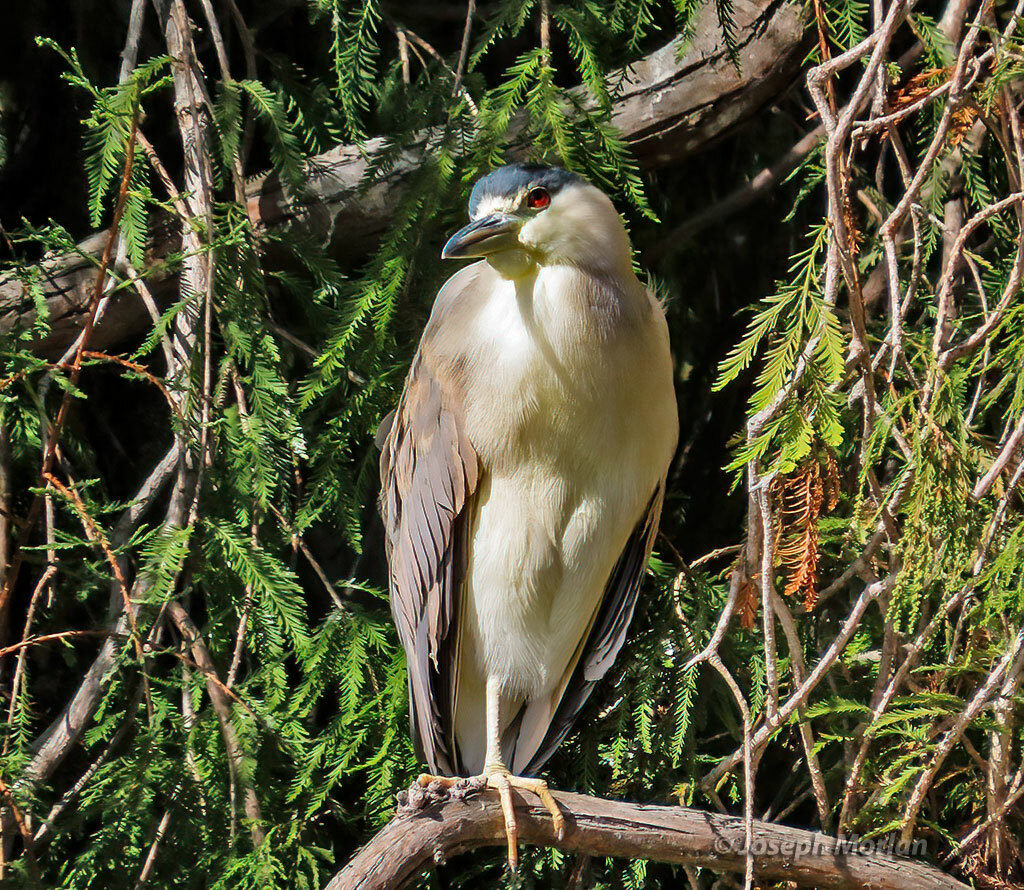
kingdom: Animalia
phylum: Chordata
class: Aves
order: Pelecaniformes
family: Ardeidae
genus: Nycticorax
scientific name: Nycticorax nycticorax
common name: Black-crowned night heron
